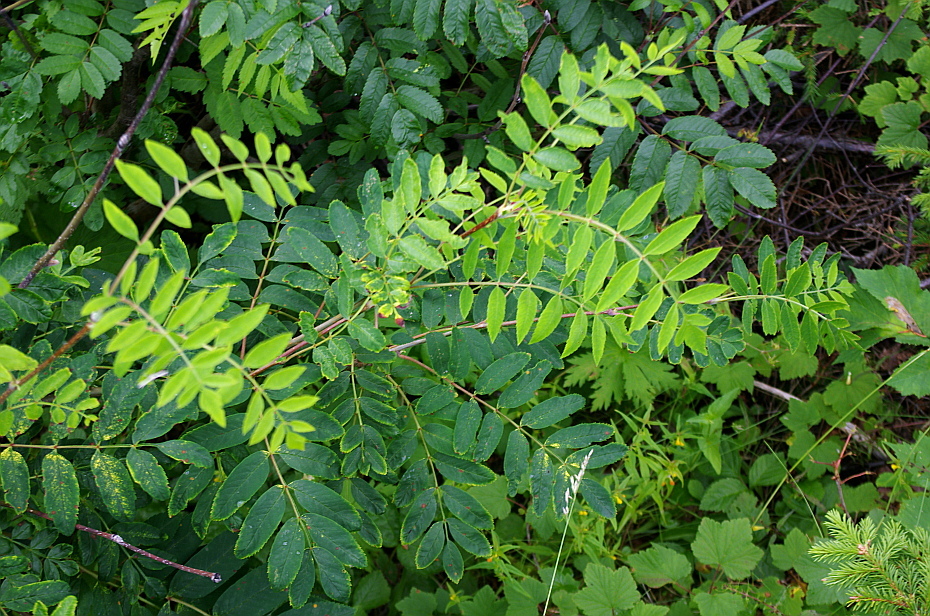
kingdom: Plantae
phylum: Tracheophyta
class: Magnoliopsida
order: Rosales
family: Rosaceae
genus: Sorbus
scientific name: Sorbus aucuparia
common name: Rowan
